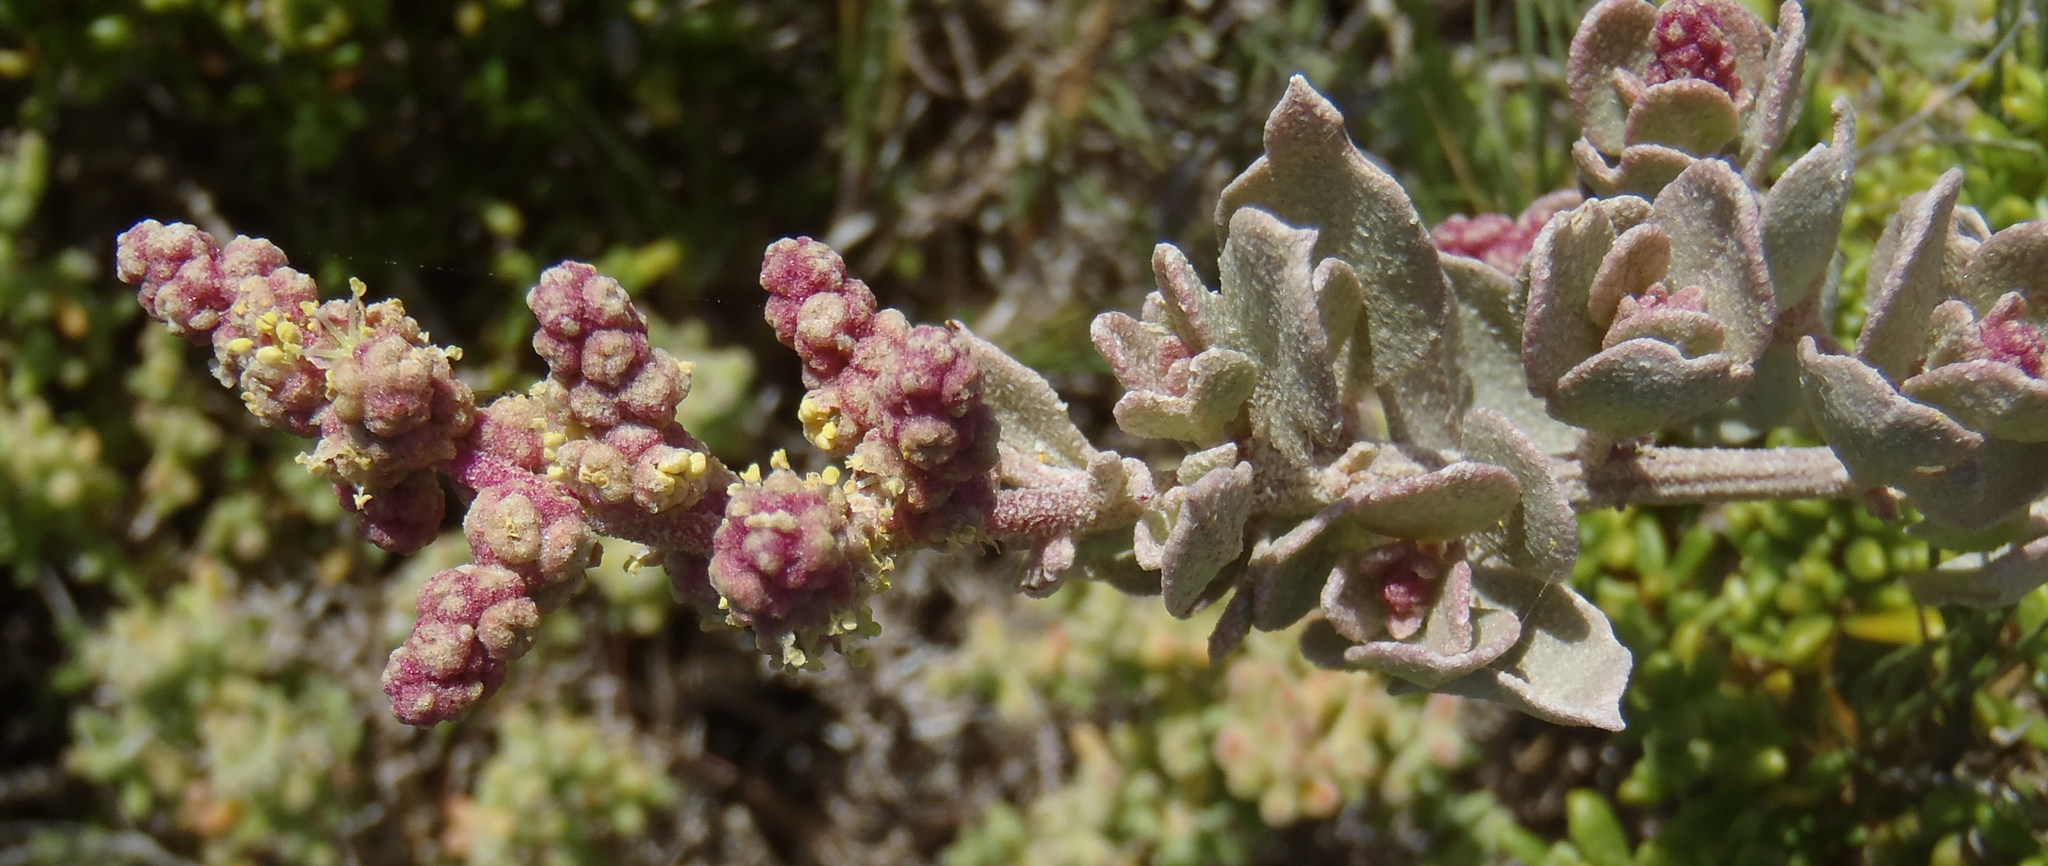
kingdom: Plantae
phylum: Tracheophyta
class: Magnoliopsida
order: Caryophyllales
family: Amaranthaceae
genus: Atriplex
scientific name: Atriplex vestita
